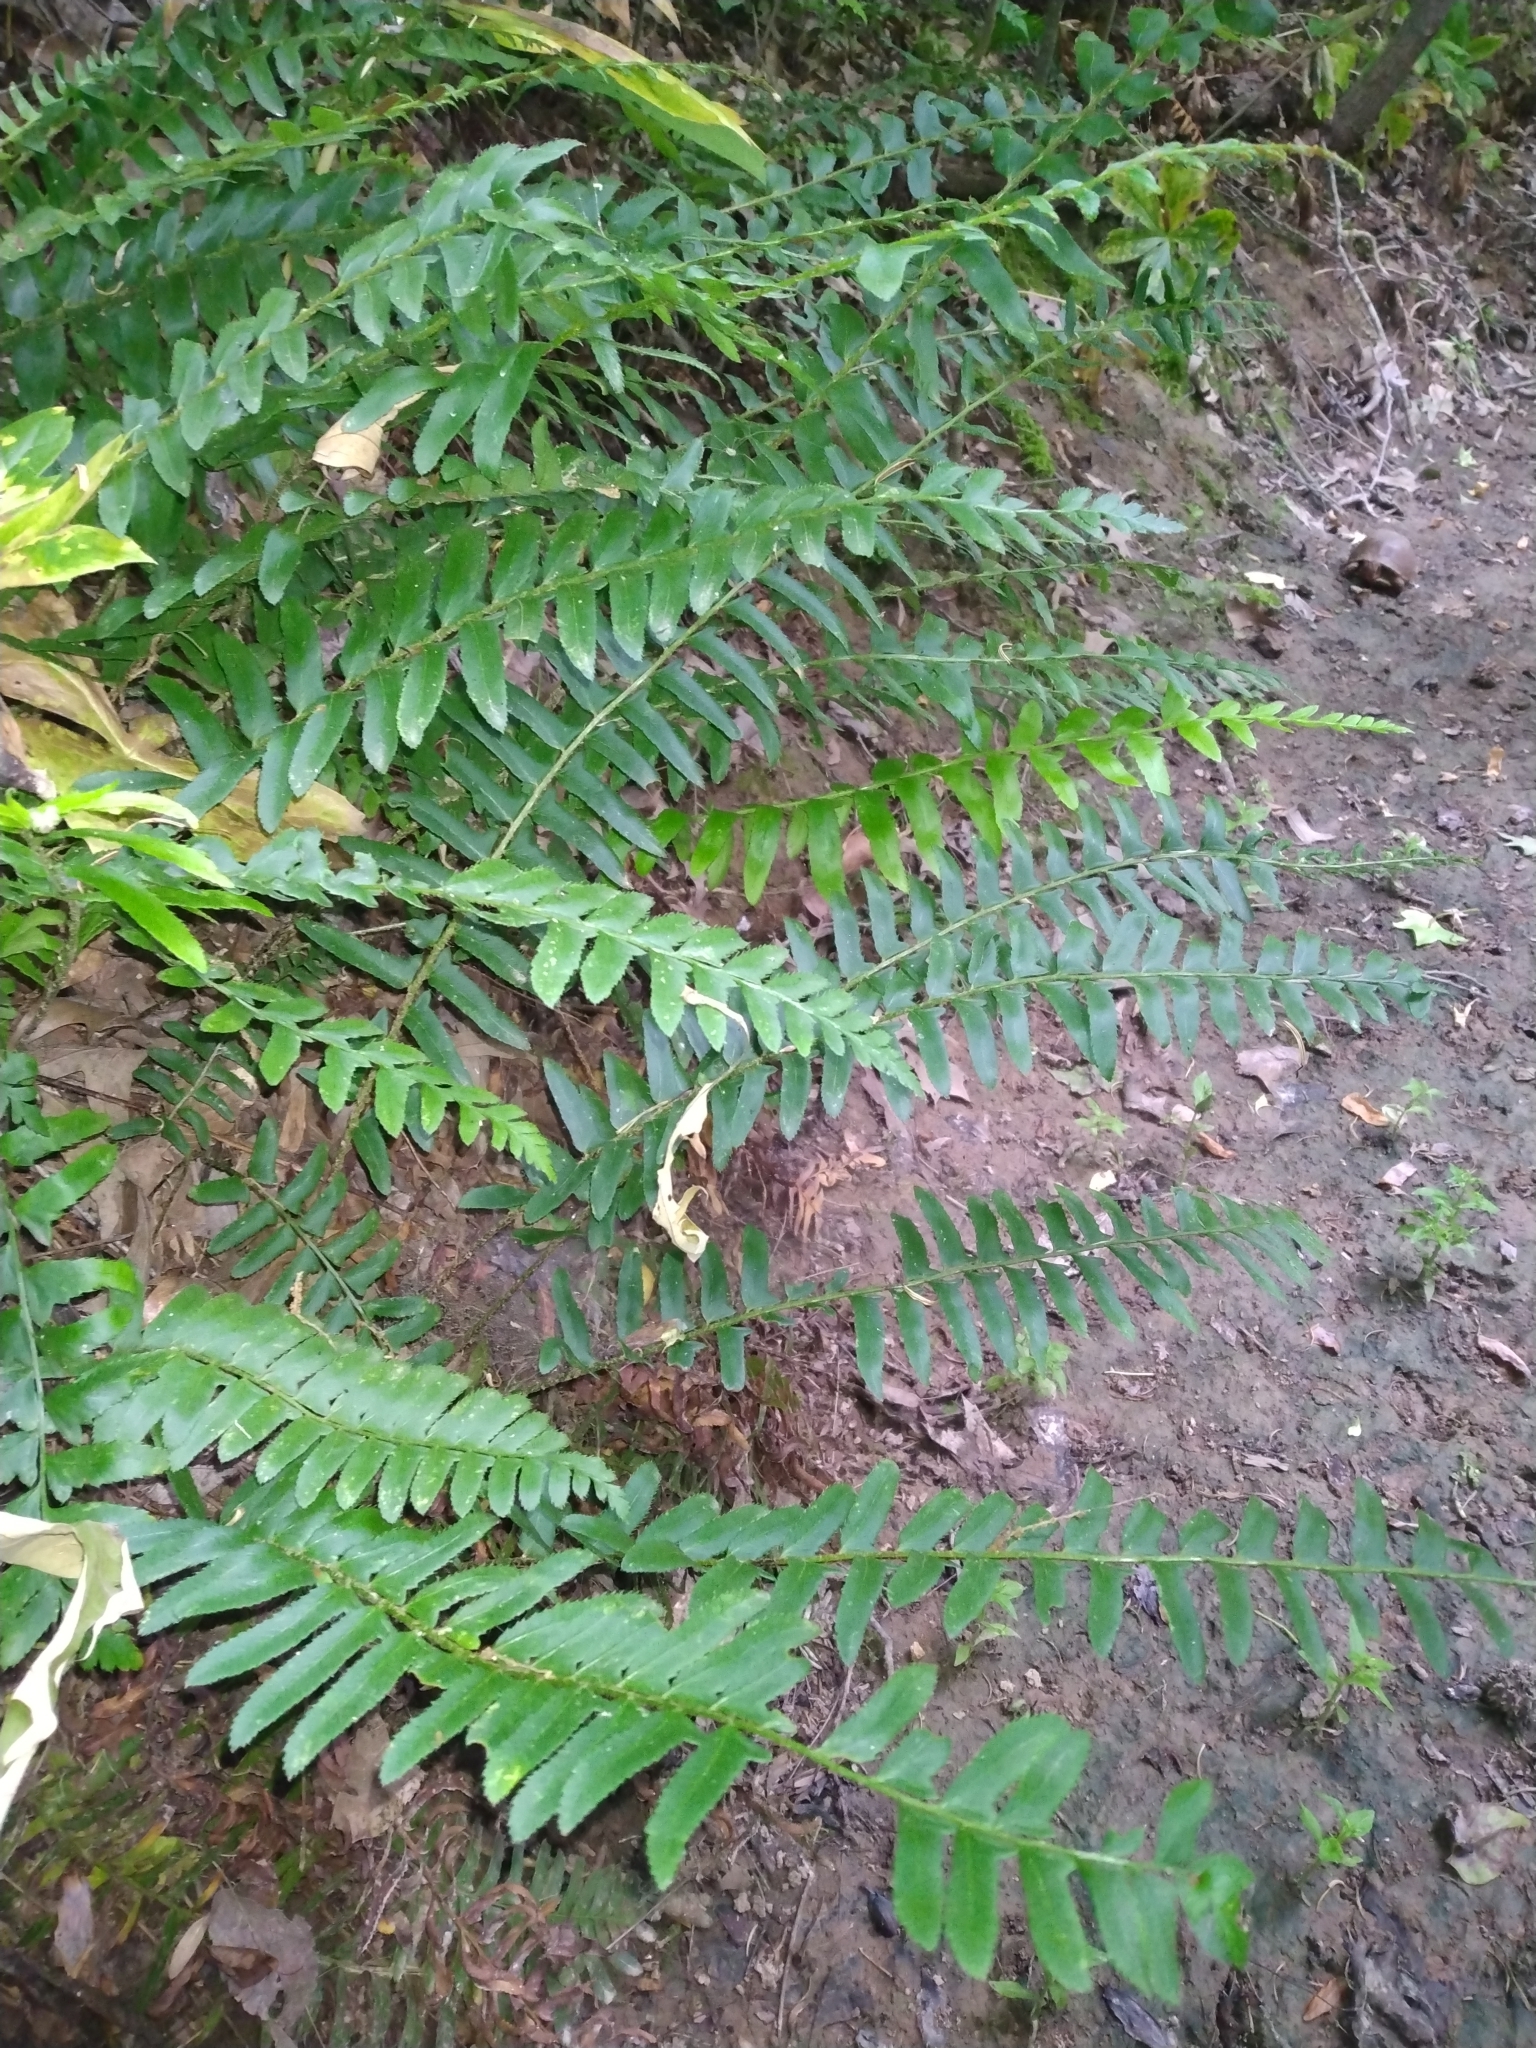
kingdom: Plantae
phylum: Tracheophyta
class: Polypodiopsida
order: Polypodiales
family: Dryopteridaceae
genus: Polystichum
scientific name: Polystichum acrostichoides
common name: Christmas fern
